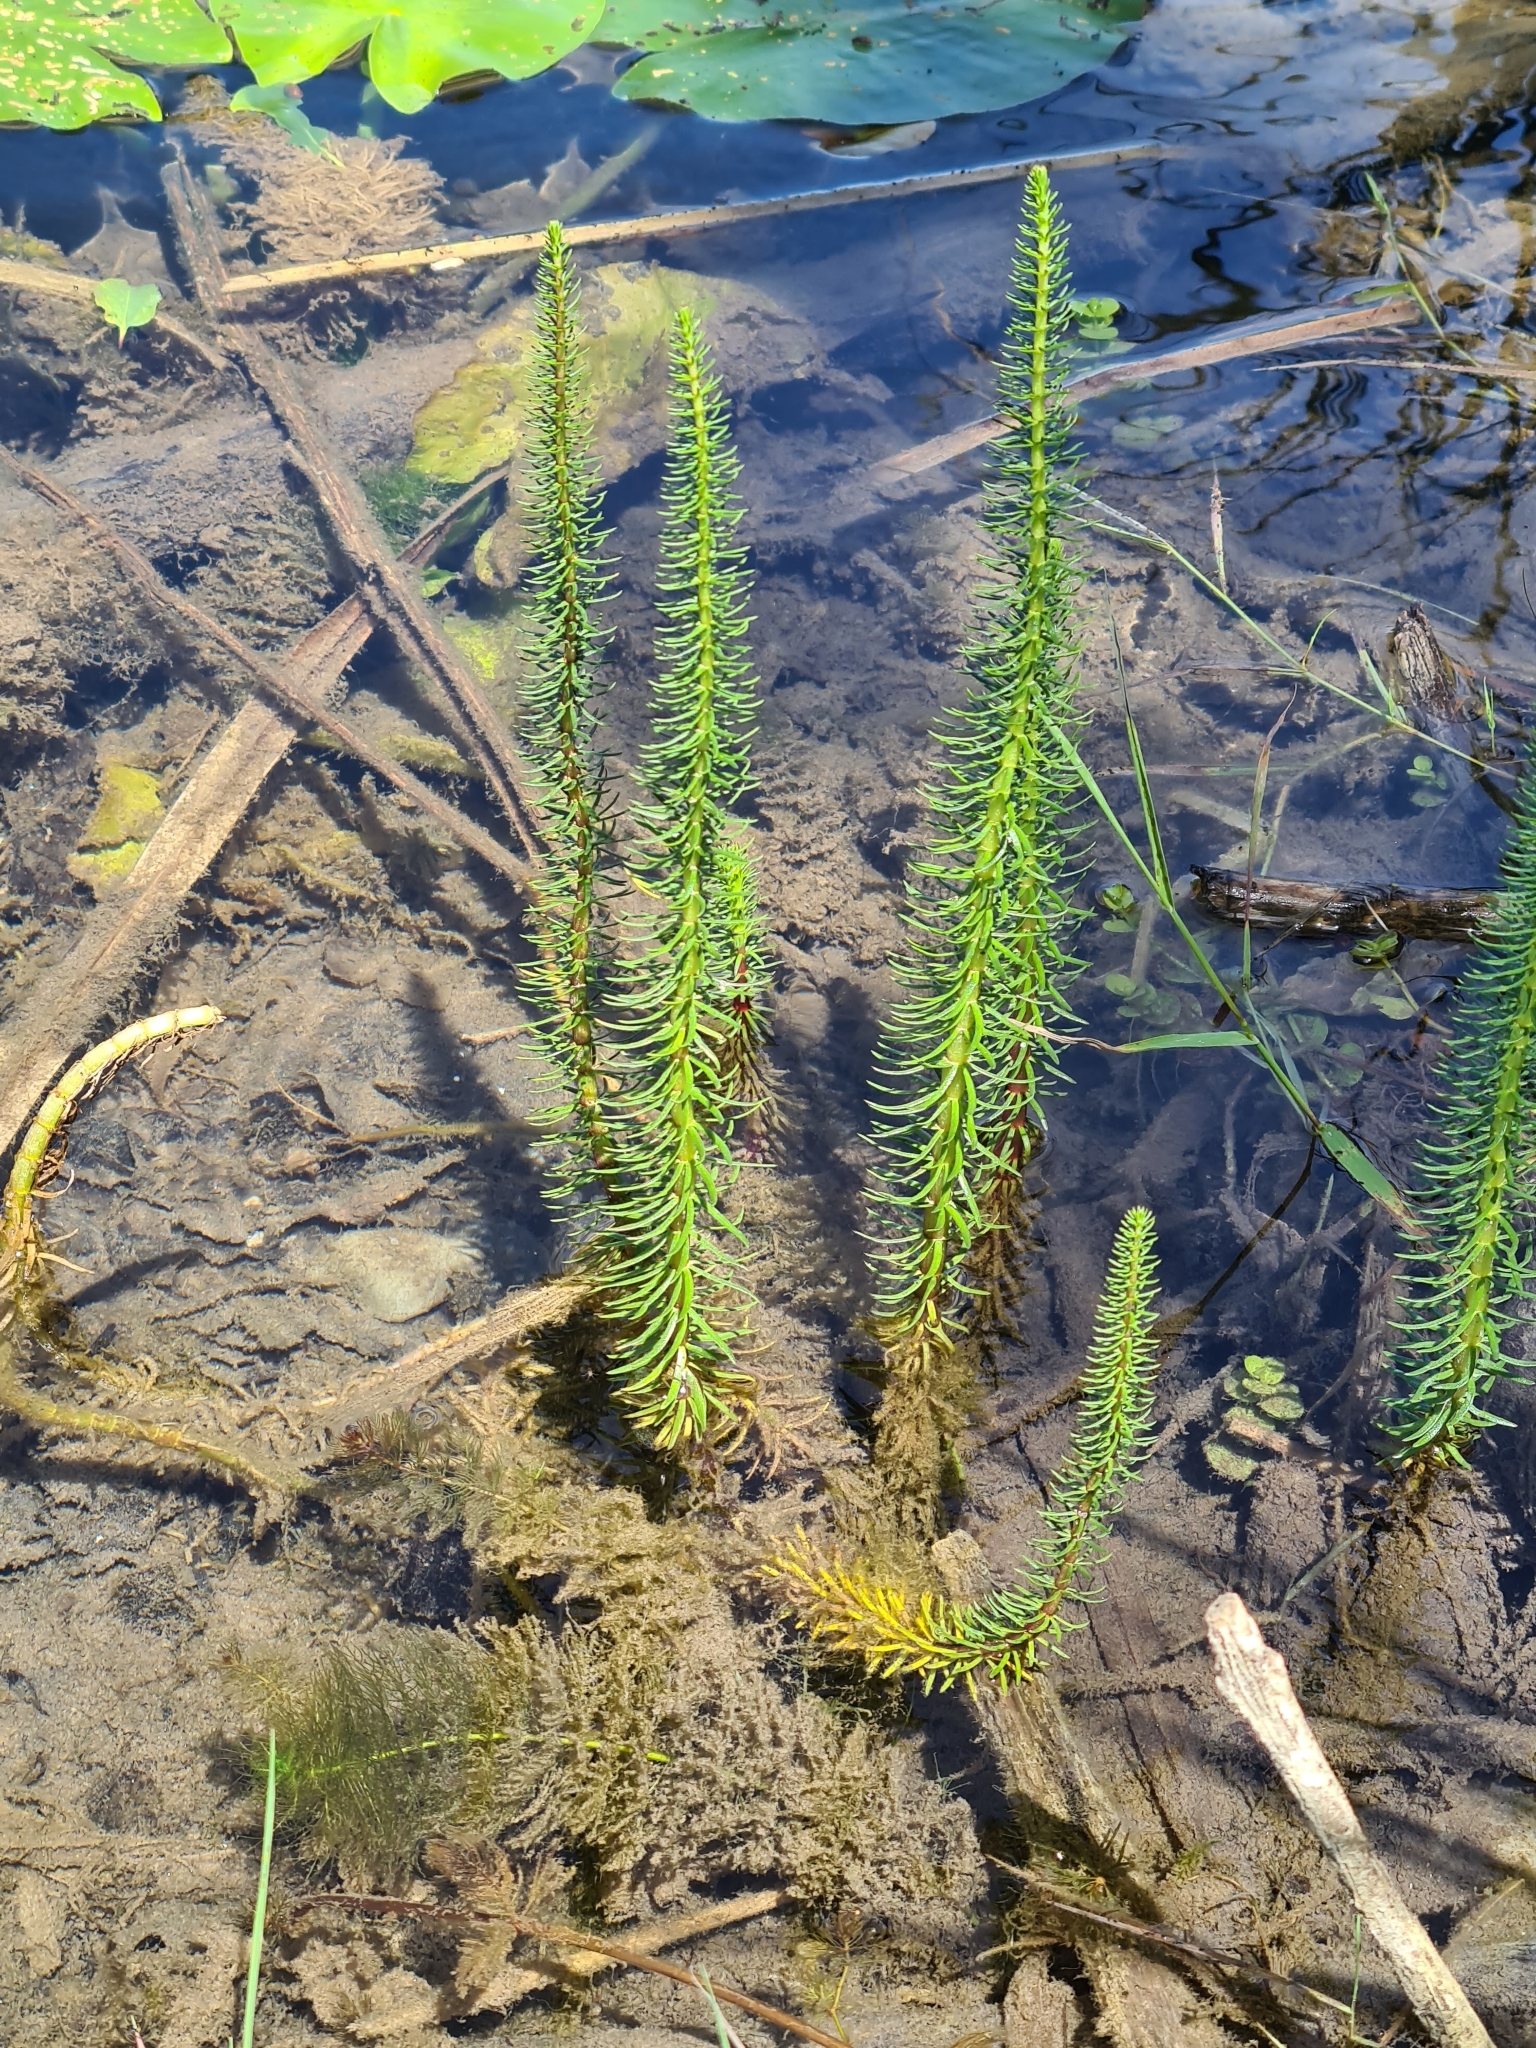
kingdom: Plantae
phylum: Tracheophyta
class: Magnoliopsida
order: Lamiales
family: Plantaginaceae
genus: Hippuris
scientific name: Hippuris vulgaris
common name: Mare's-tail
